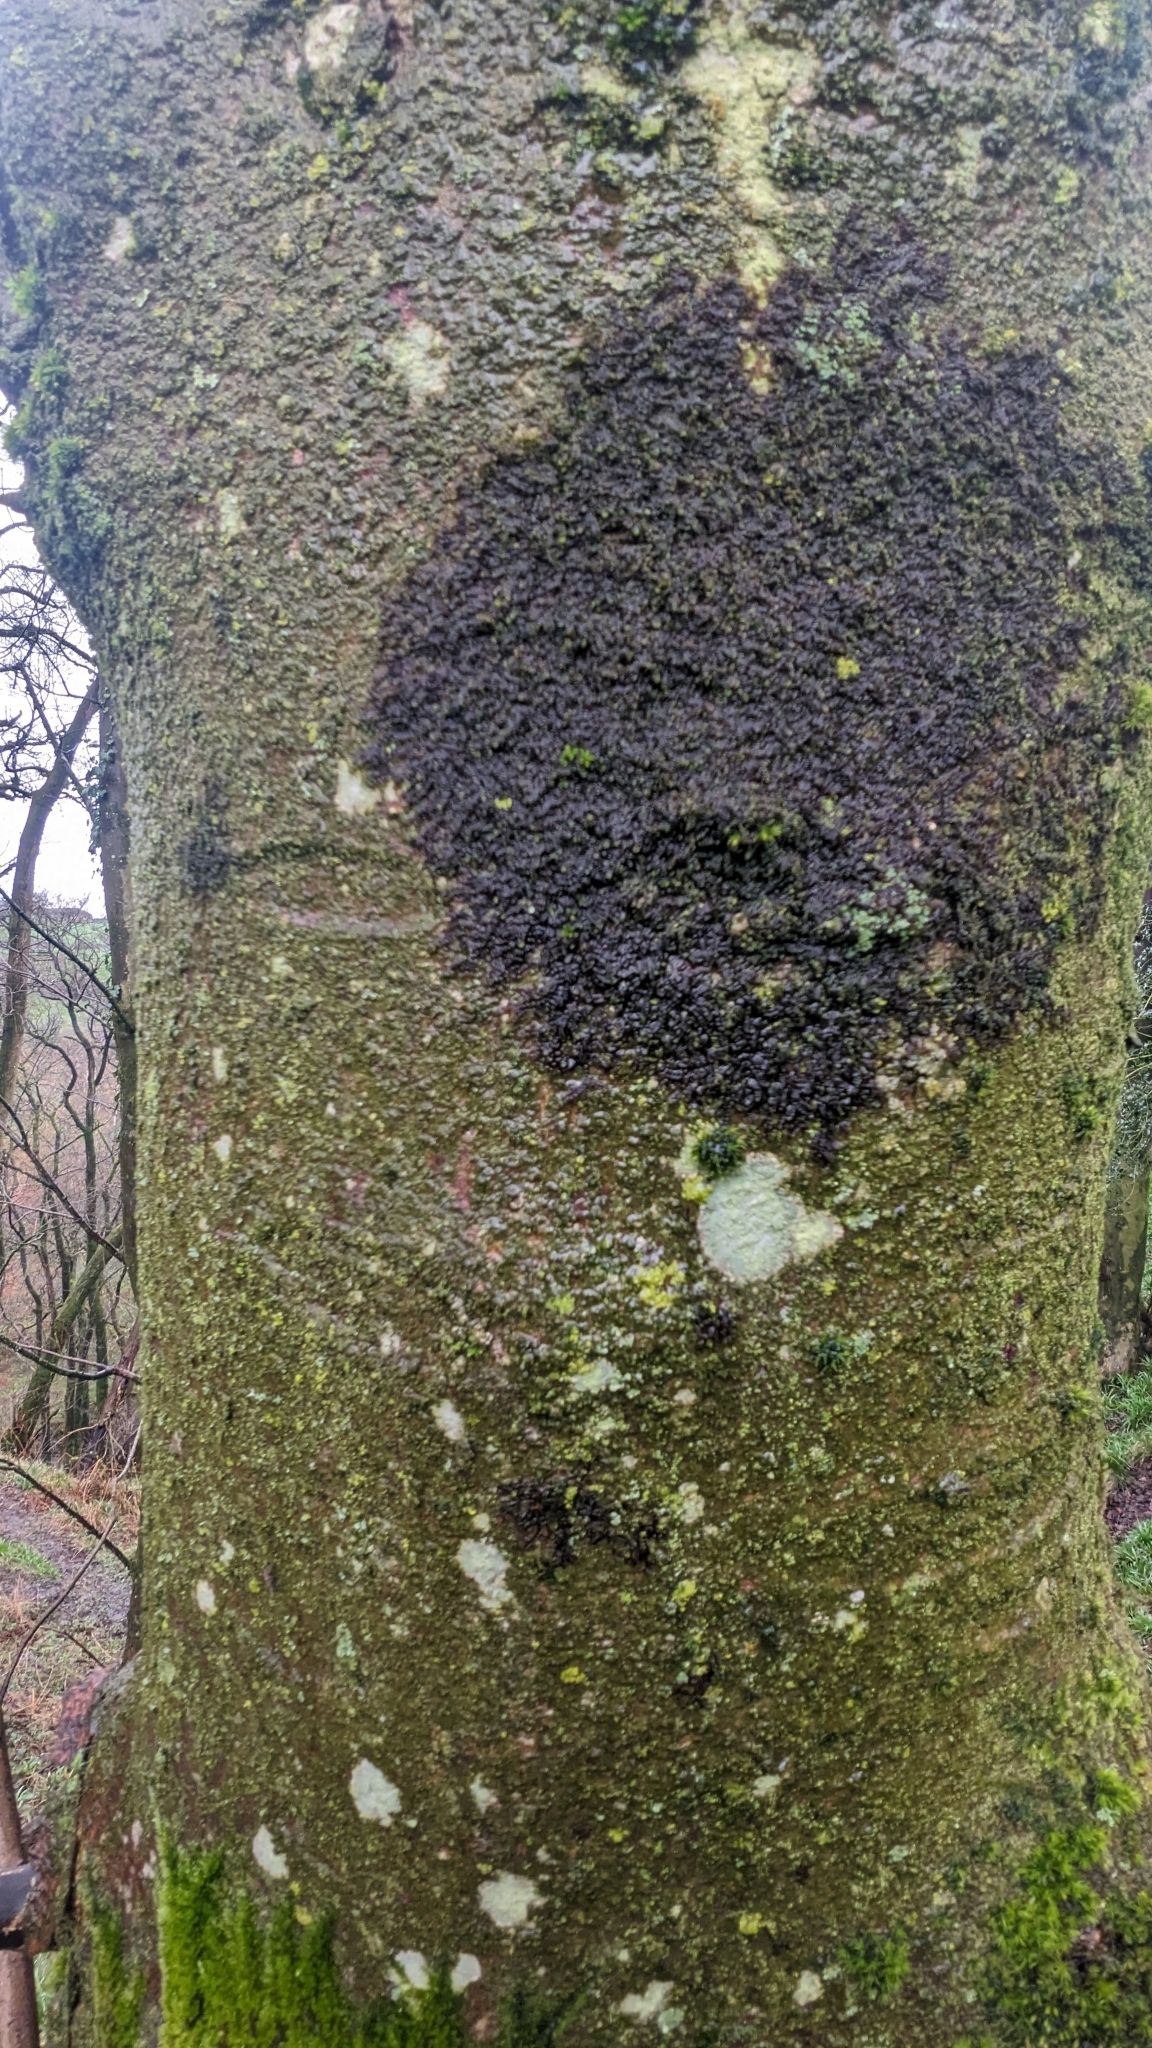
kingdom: Plantae
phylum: Marchantiophyta
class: Jungermanniopsida
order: Porellales
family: Frullaniaceae
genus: Frullania
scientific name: Frullania dilatata
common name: Dilated scalewort
